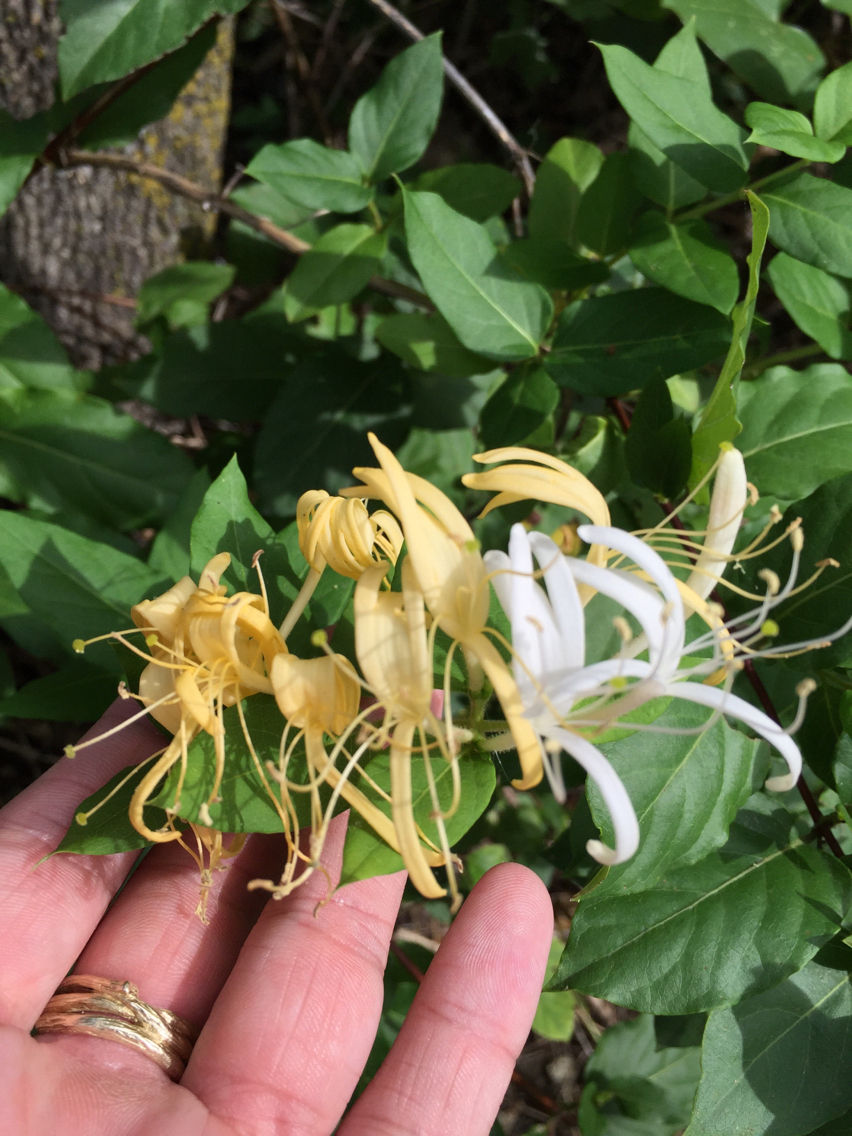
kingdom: Plantae
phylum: Tracheophyta
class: Magnoliopsida
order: Dipsacales
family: Caprifoliaceae
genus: Lonicera
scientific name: Lonicera japonica
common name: Japanese honeysuckle
